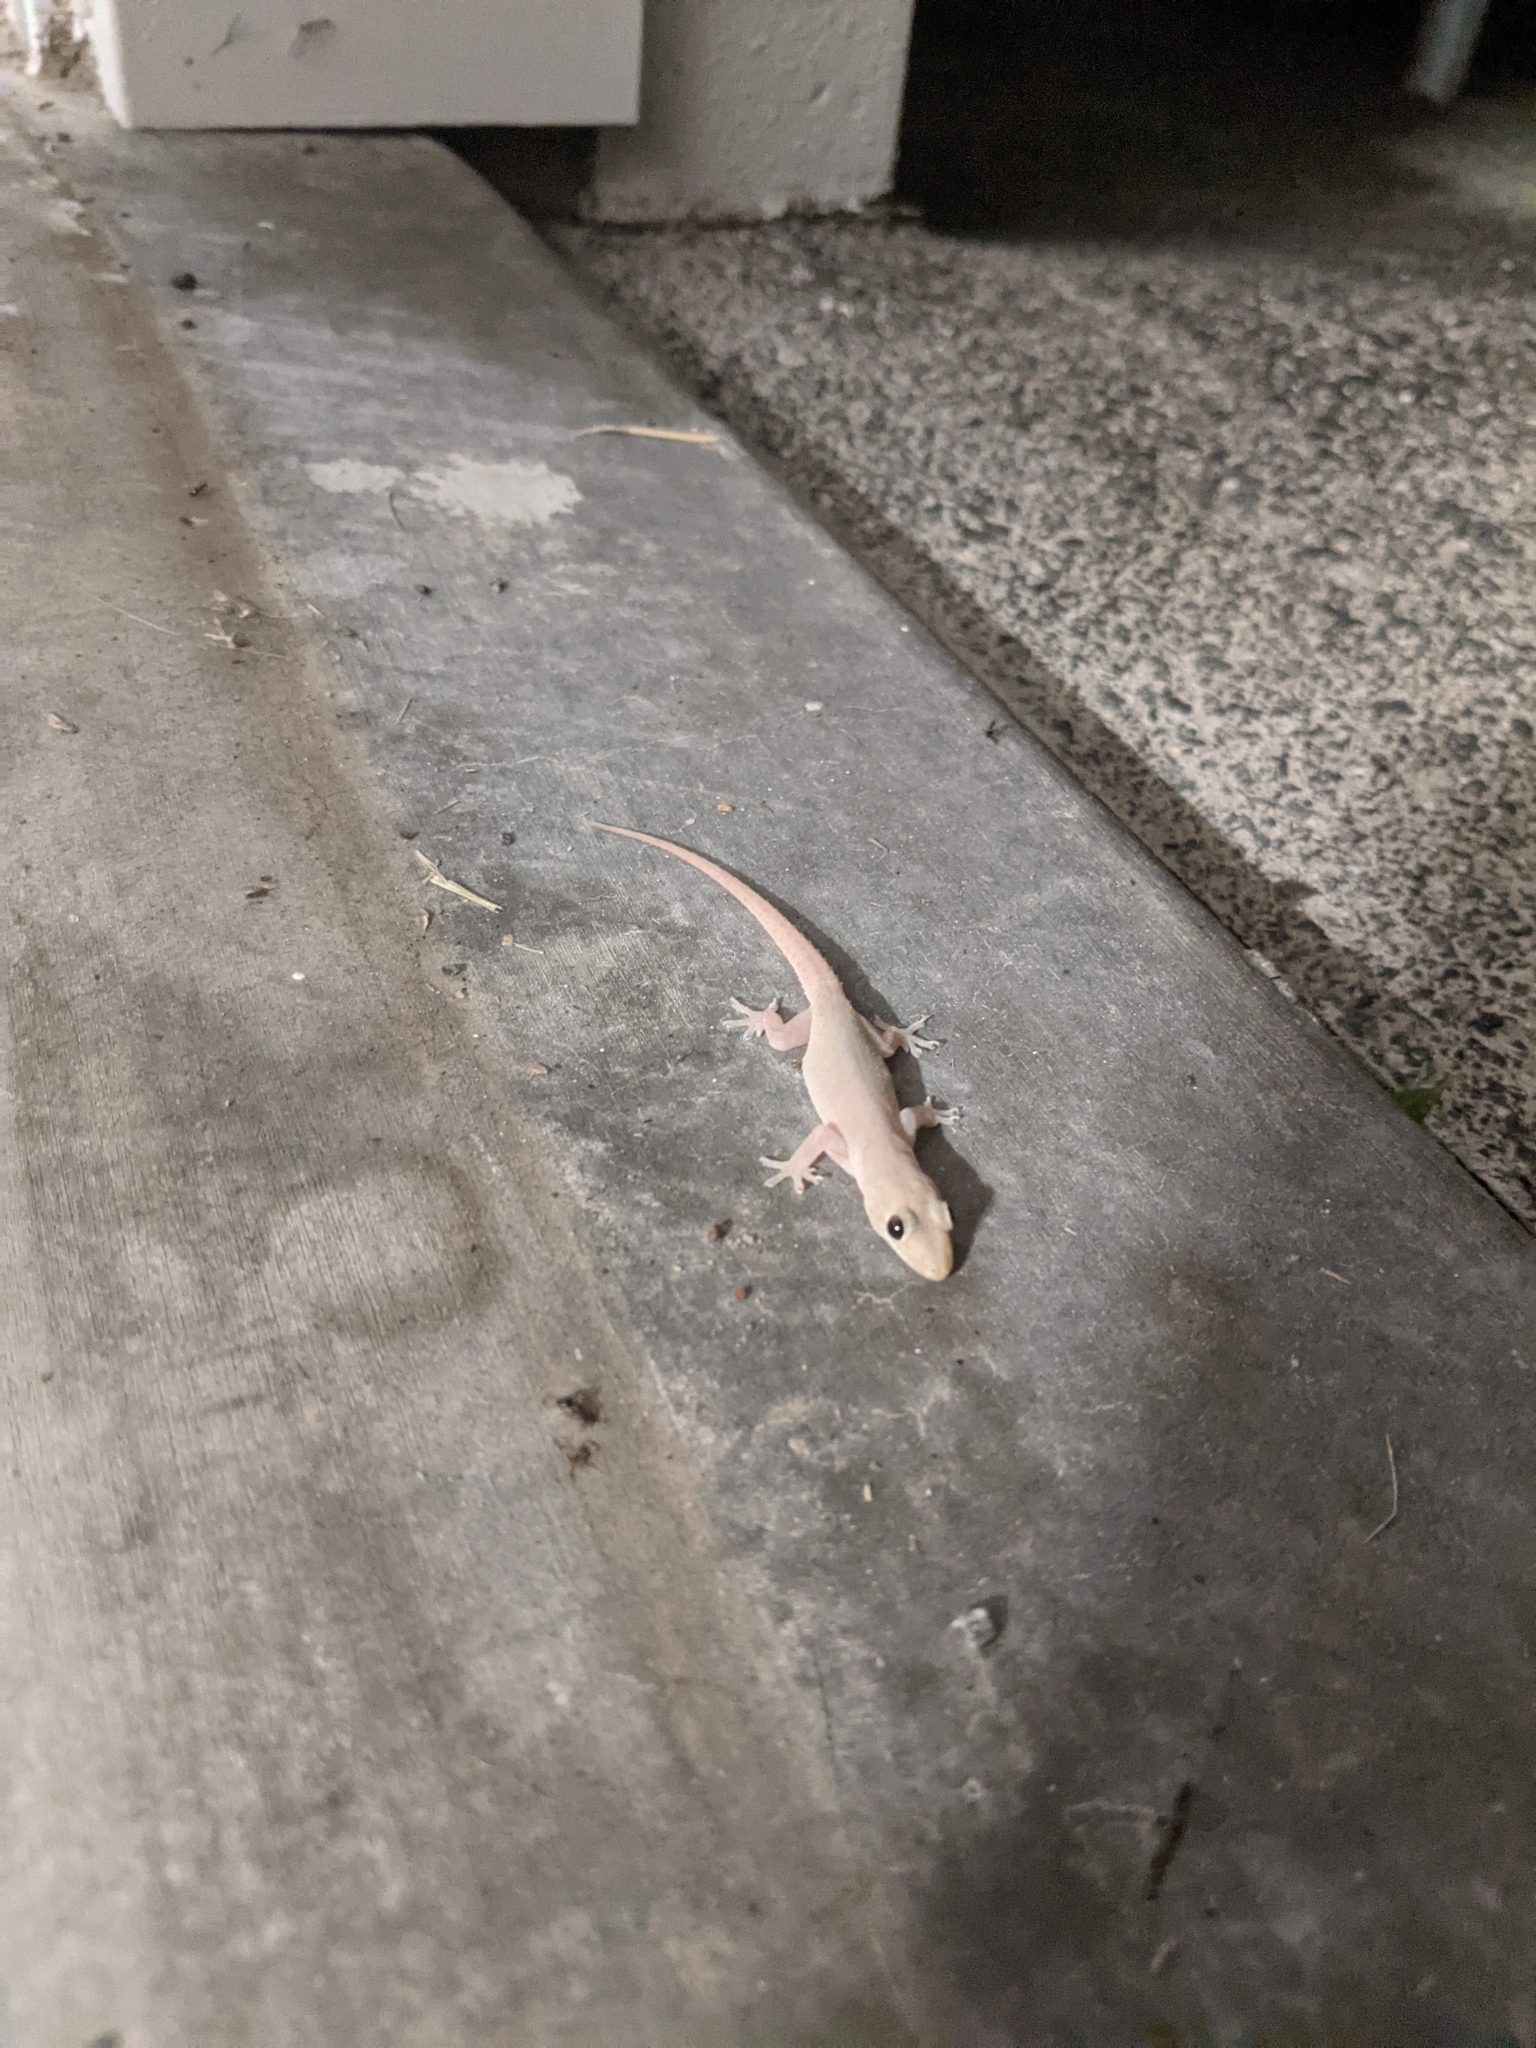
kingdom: Animalia
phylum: Chordata
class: Squamata
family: Gekkonidae
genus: Hemidactylus
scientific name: Hemidactylus frenatus
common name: Common house gecko
